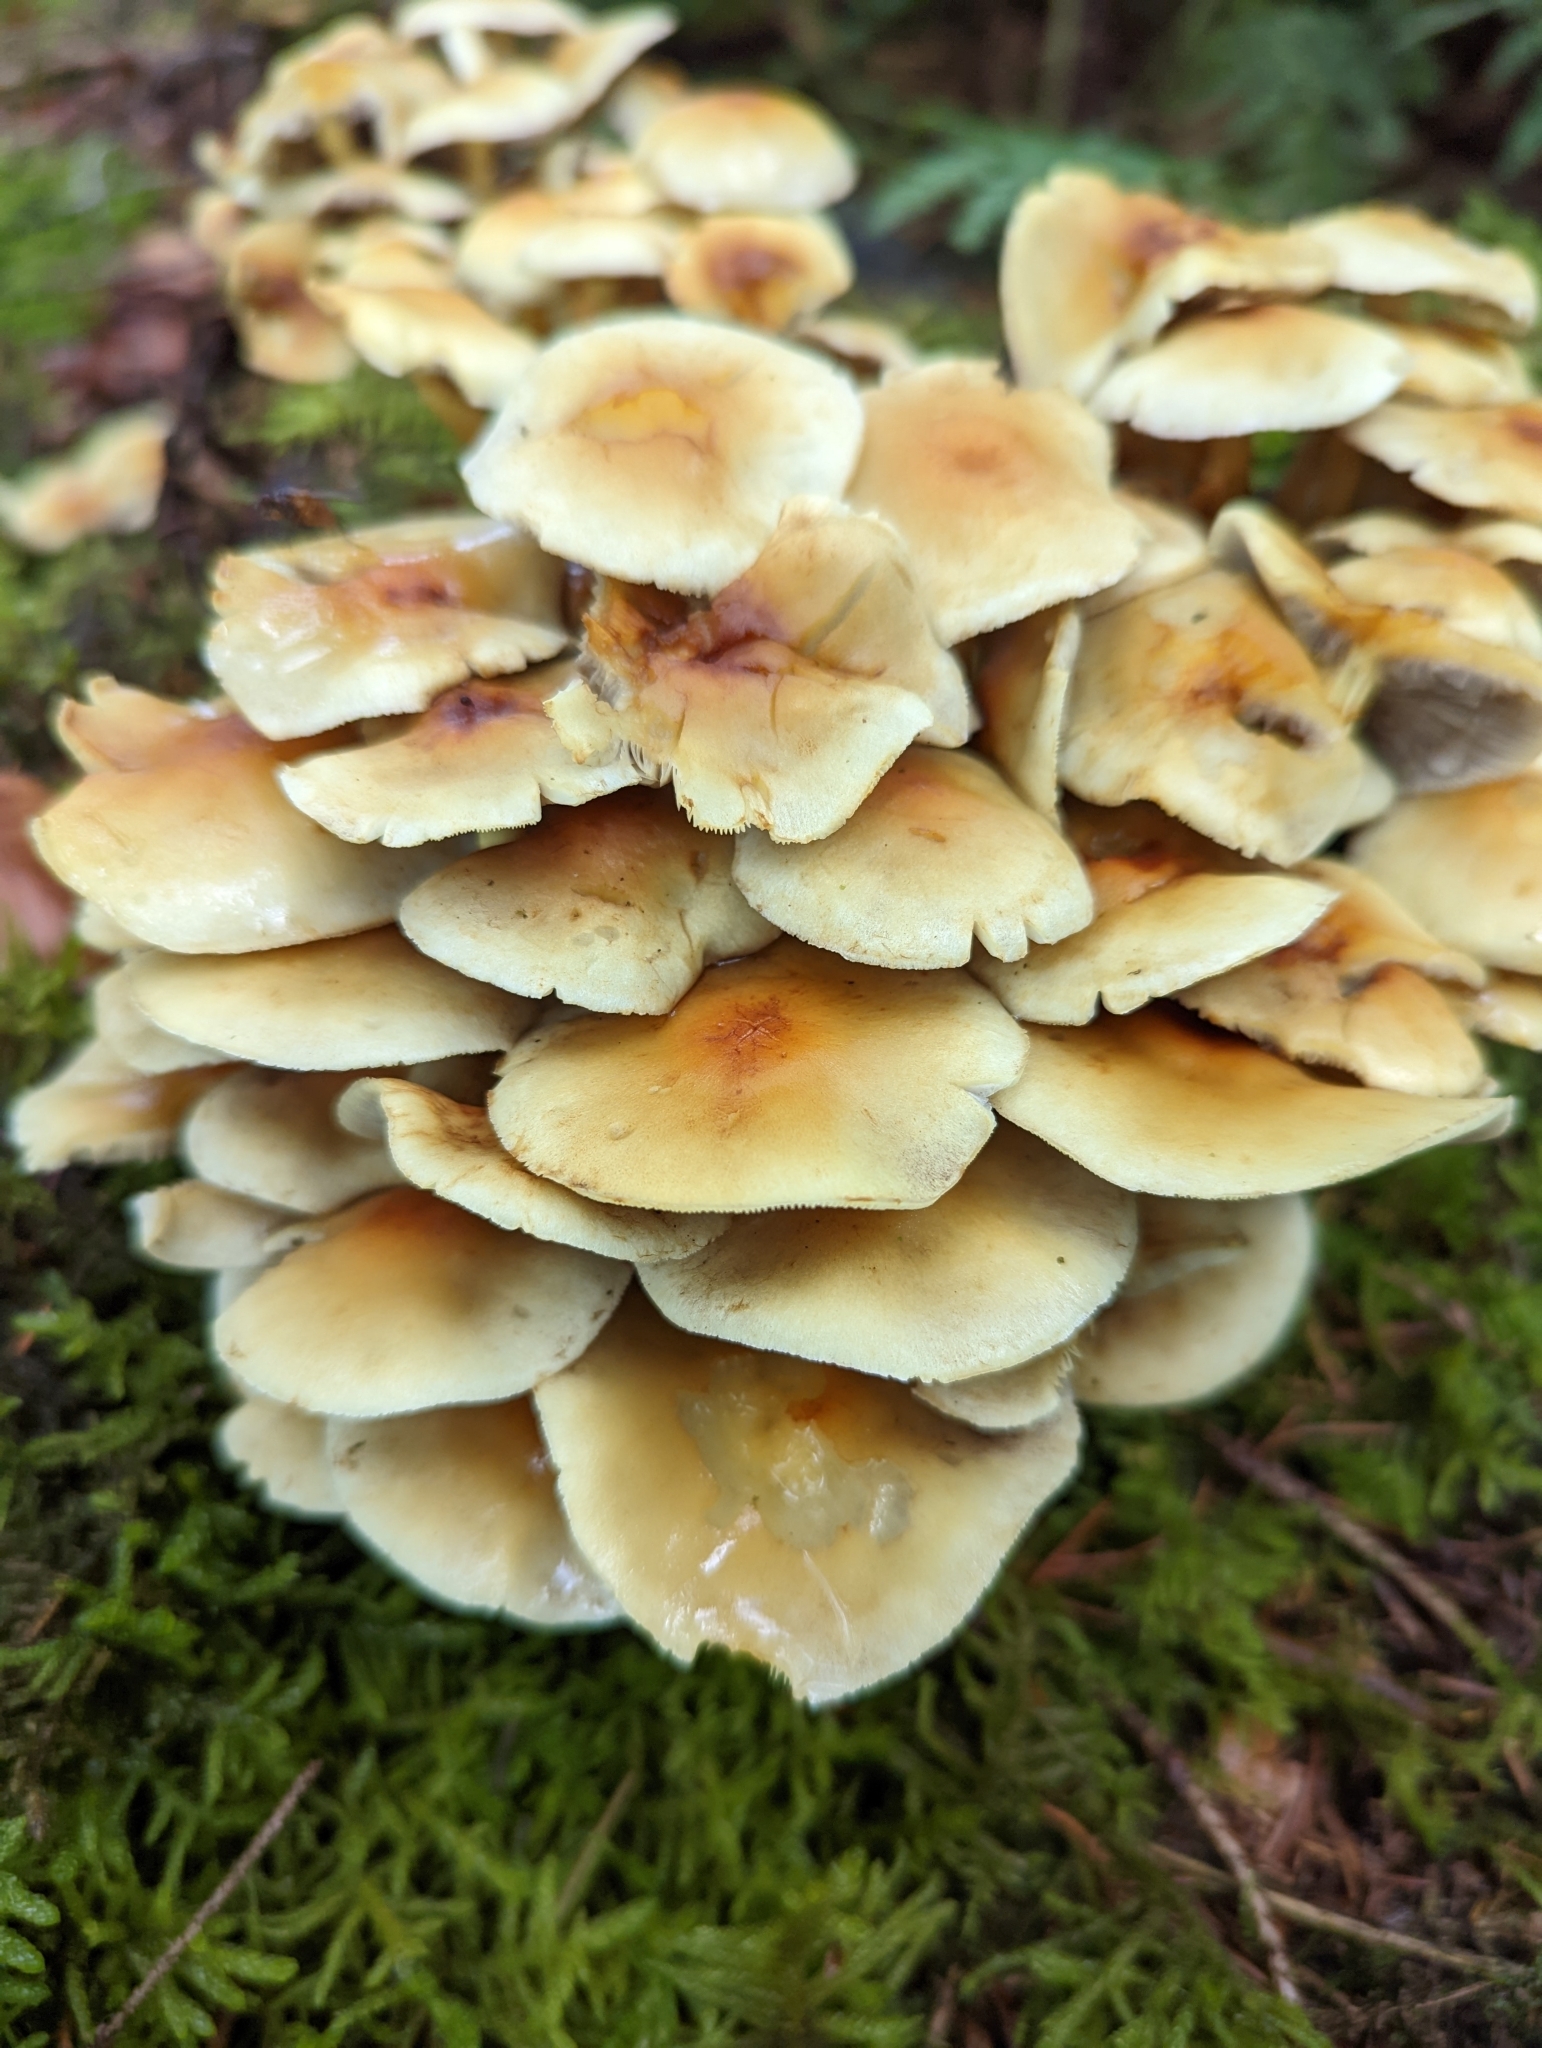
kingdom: Fungi
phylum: Basidiomycota
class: Agaricomycetes
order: Agaricales
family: Strophariaceae
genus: Hypholoma
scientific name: Hypholoma fasciculare
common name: Sulphur tuft
